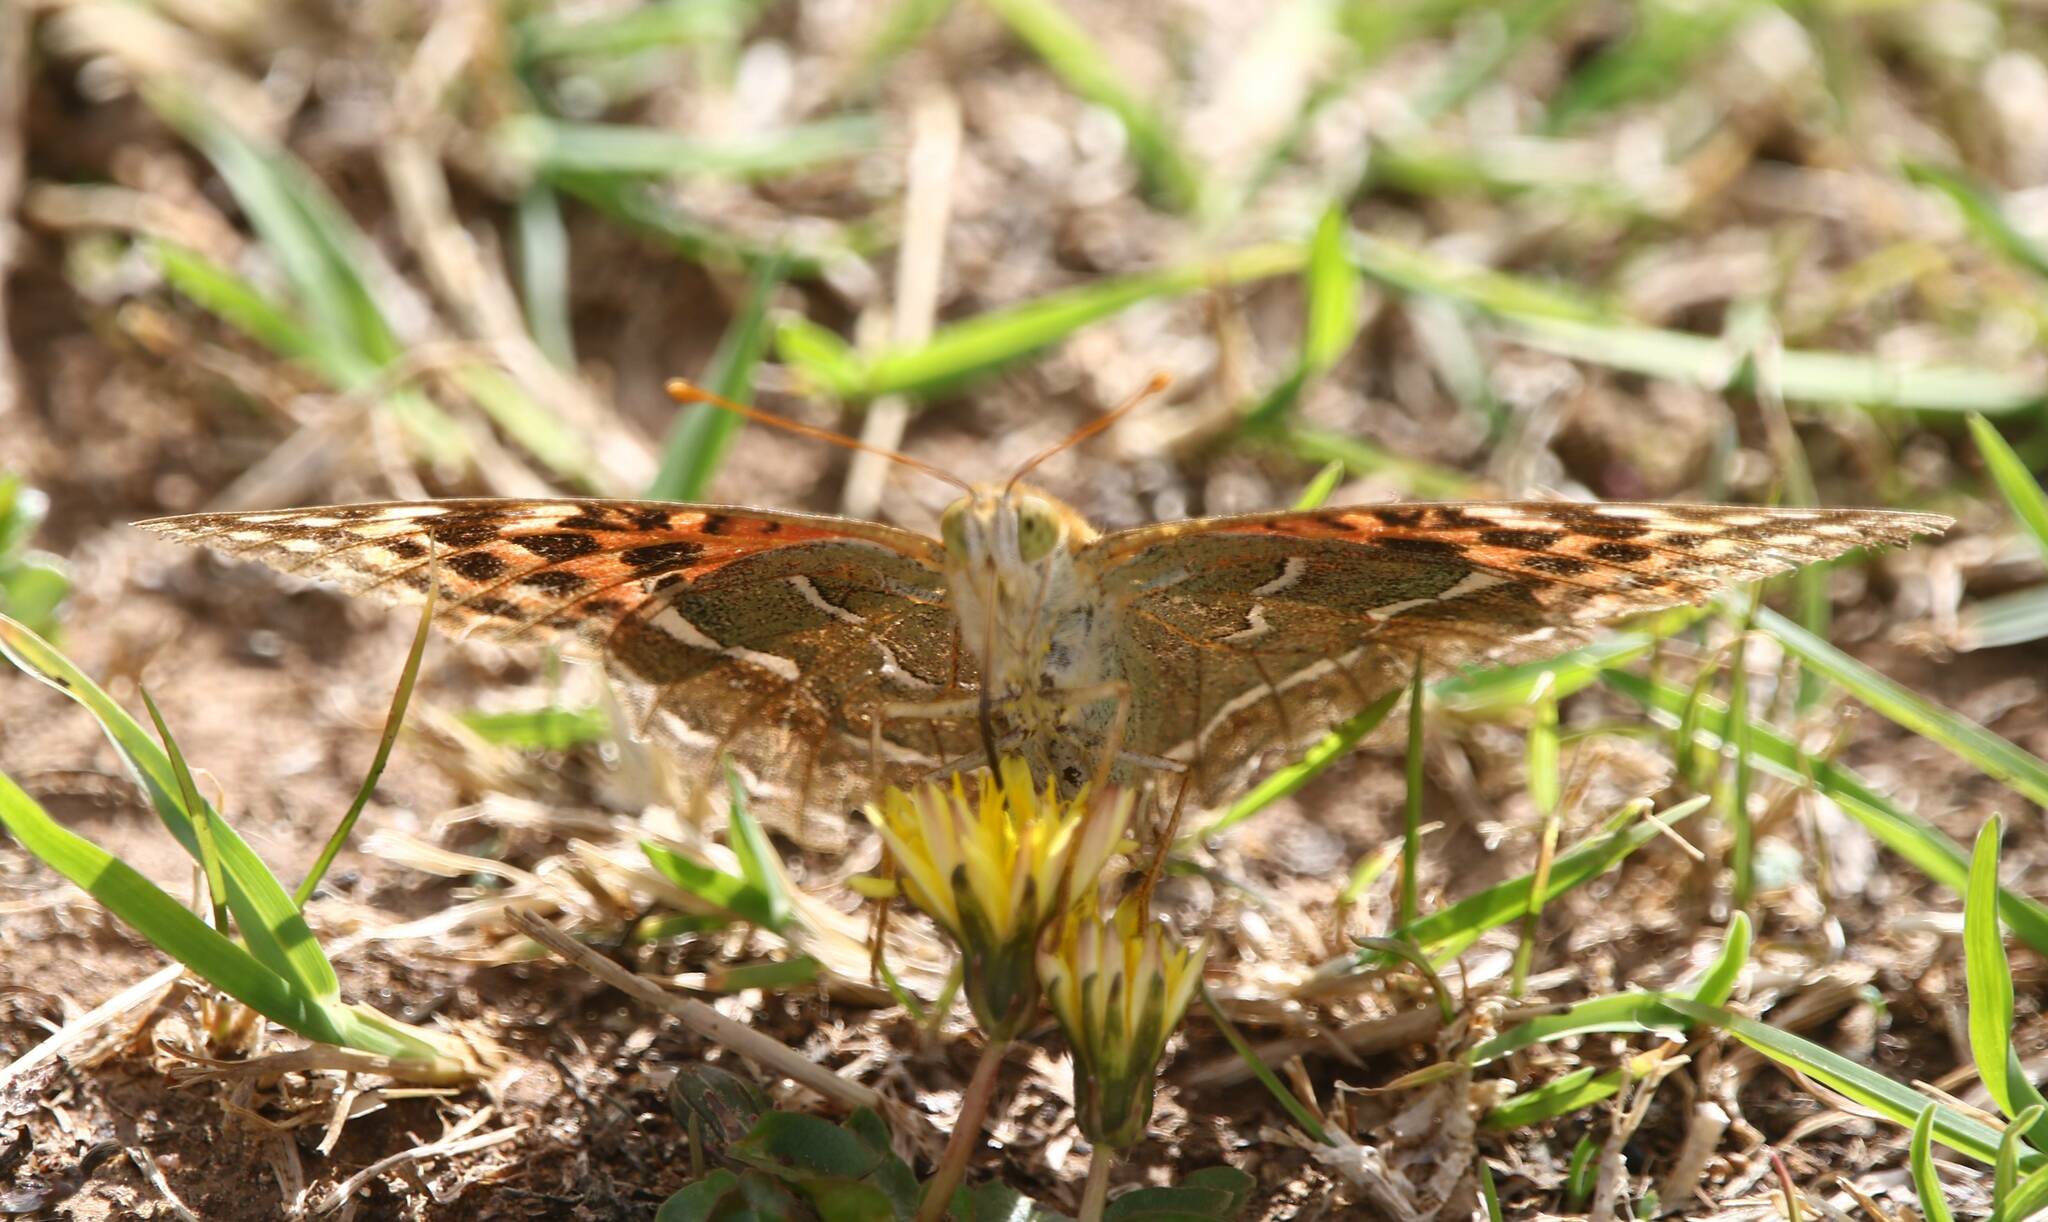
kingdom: Animalia
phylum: Arthropoda
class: Insecta
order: Lepidoptera
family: Nymphalidae
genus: Damora
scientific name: Damora pandora
